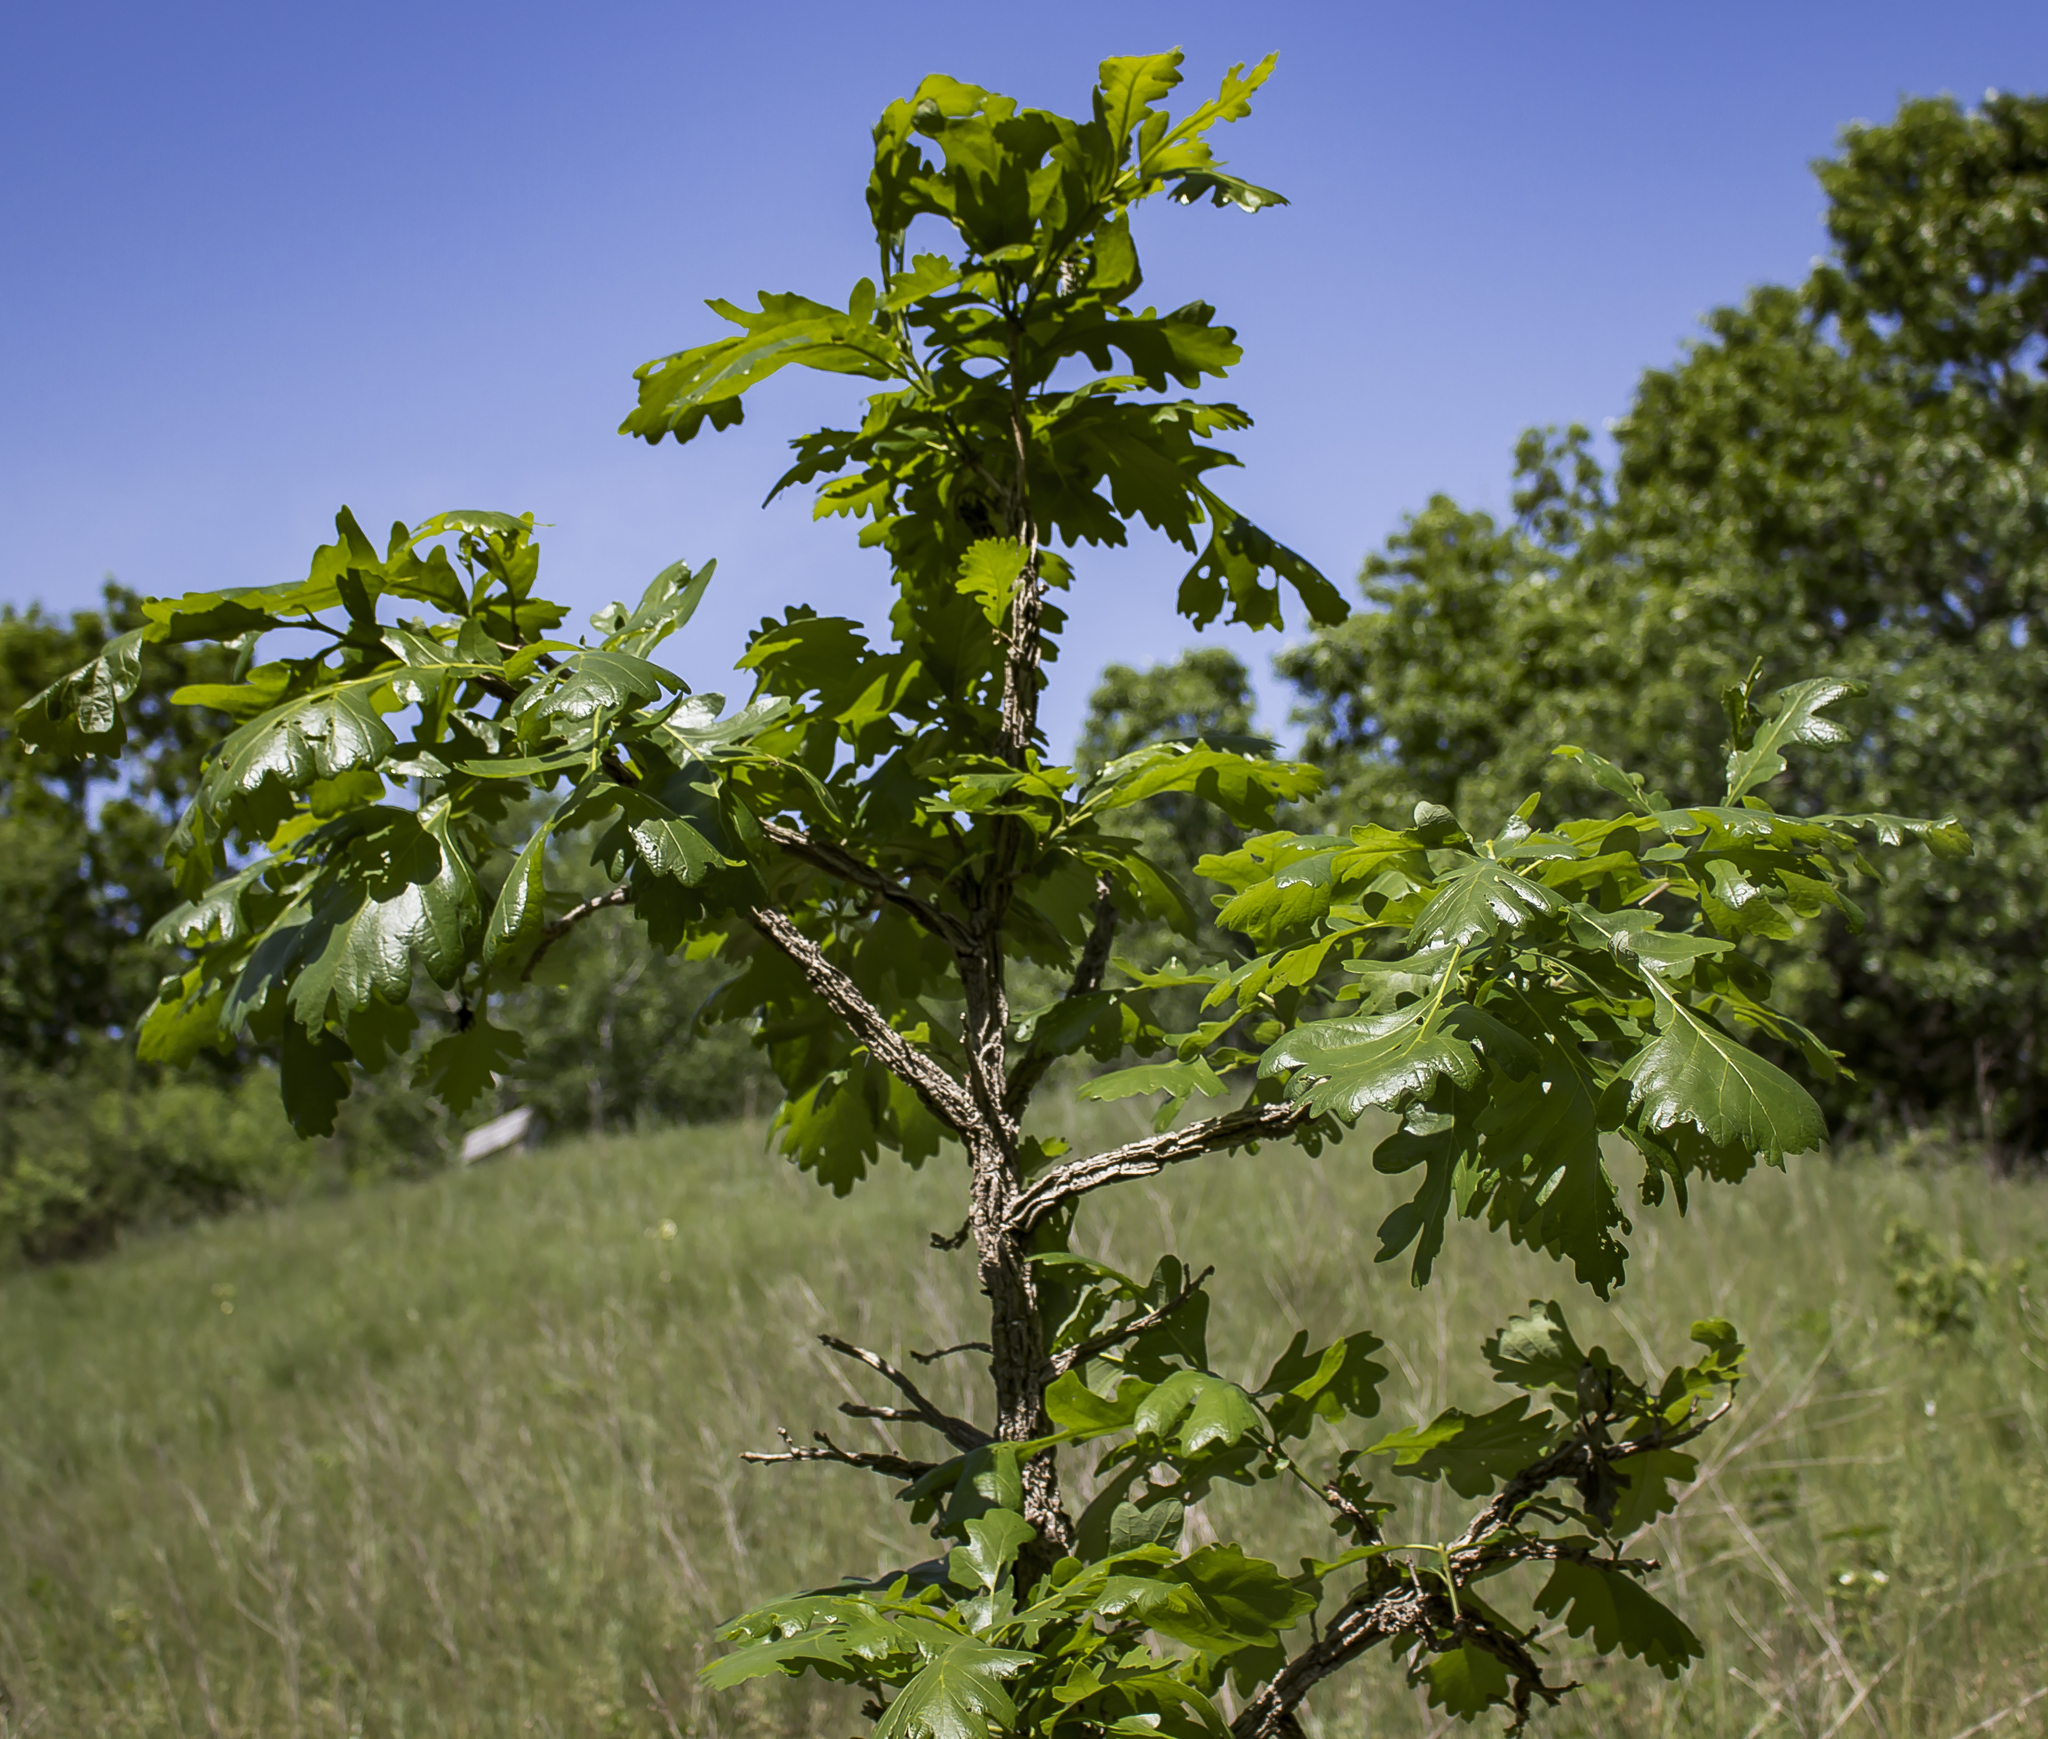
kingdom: Plantae
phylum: Tracheophyta
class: Magnoliopsida
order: Fagales
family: Fagaceae
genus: Quercus
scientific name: Quercus macrocarpa
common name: Bur oak
